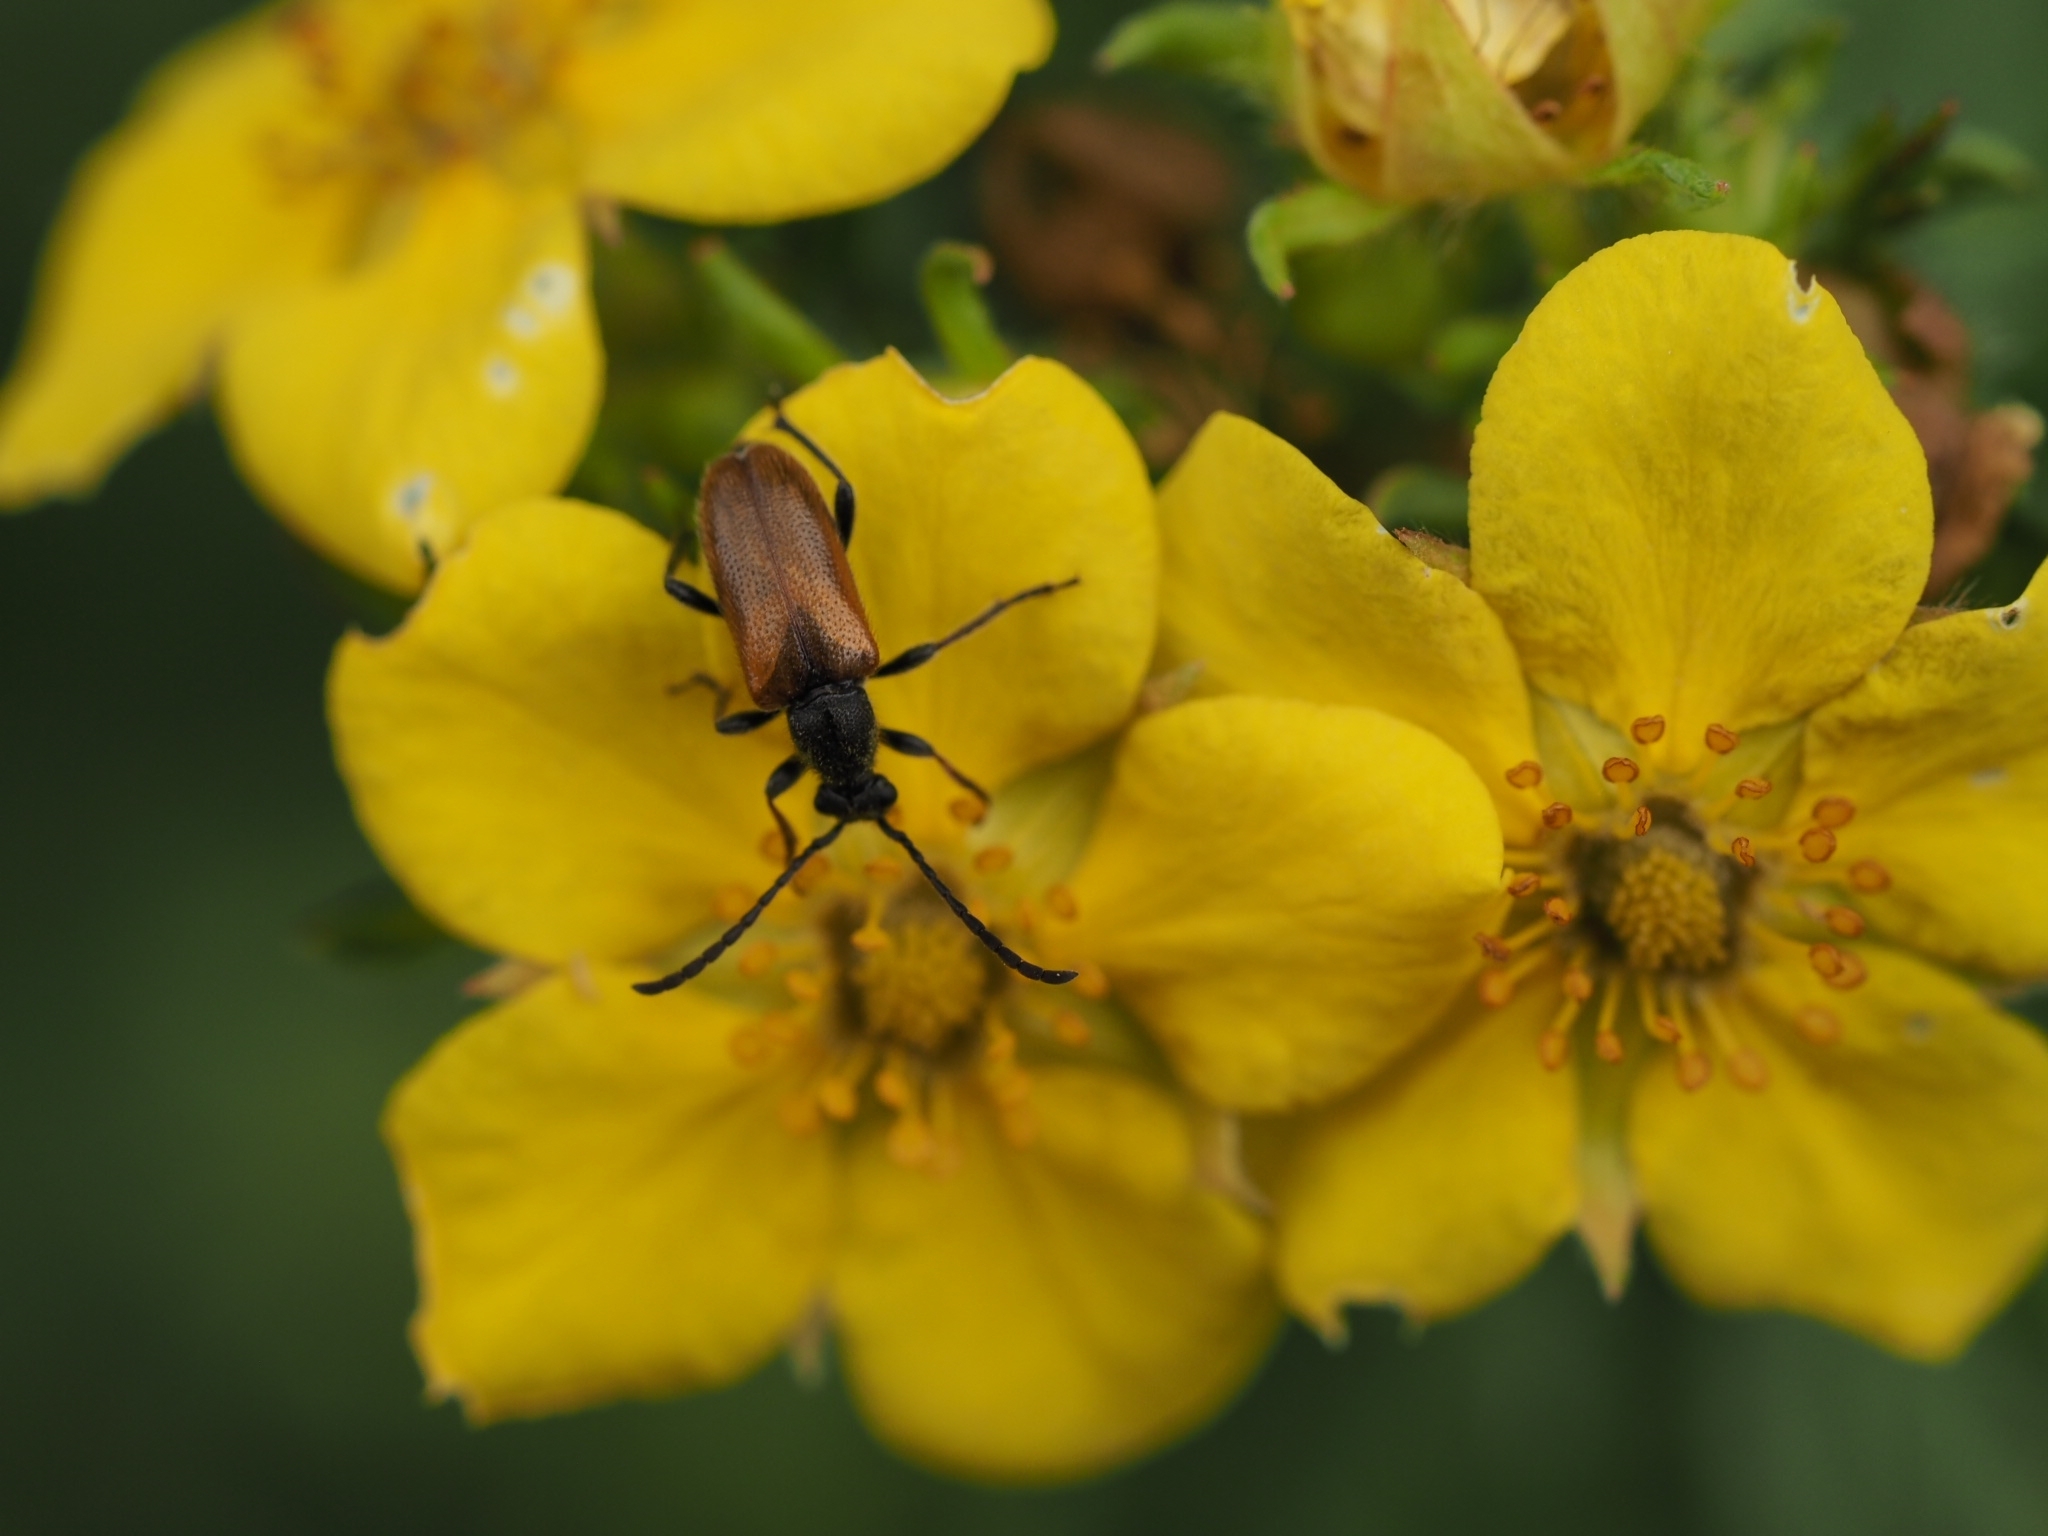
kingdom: Animalia
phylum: Arthropoda
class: Insecta
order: Coleoptera
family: Cerambycidae
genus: Pseudovadonia
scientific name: Pseudovadonia livida
